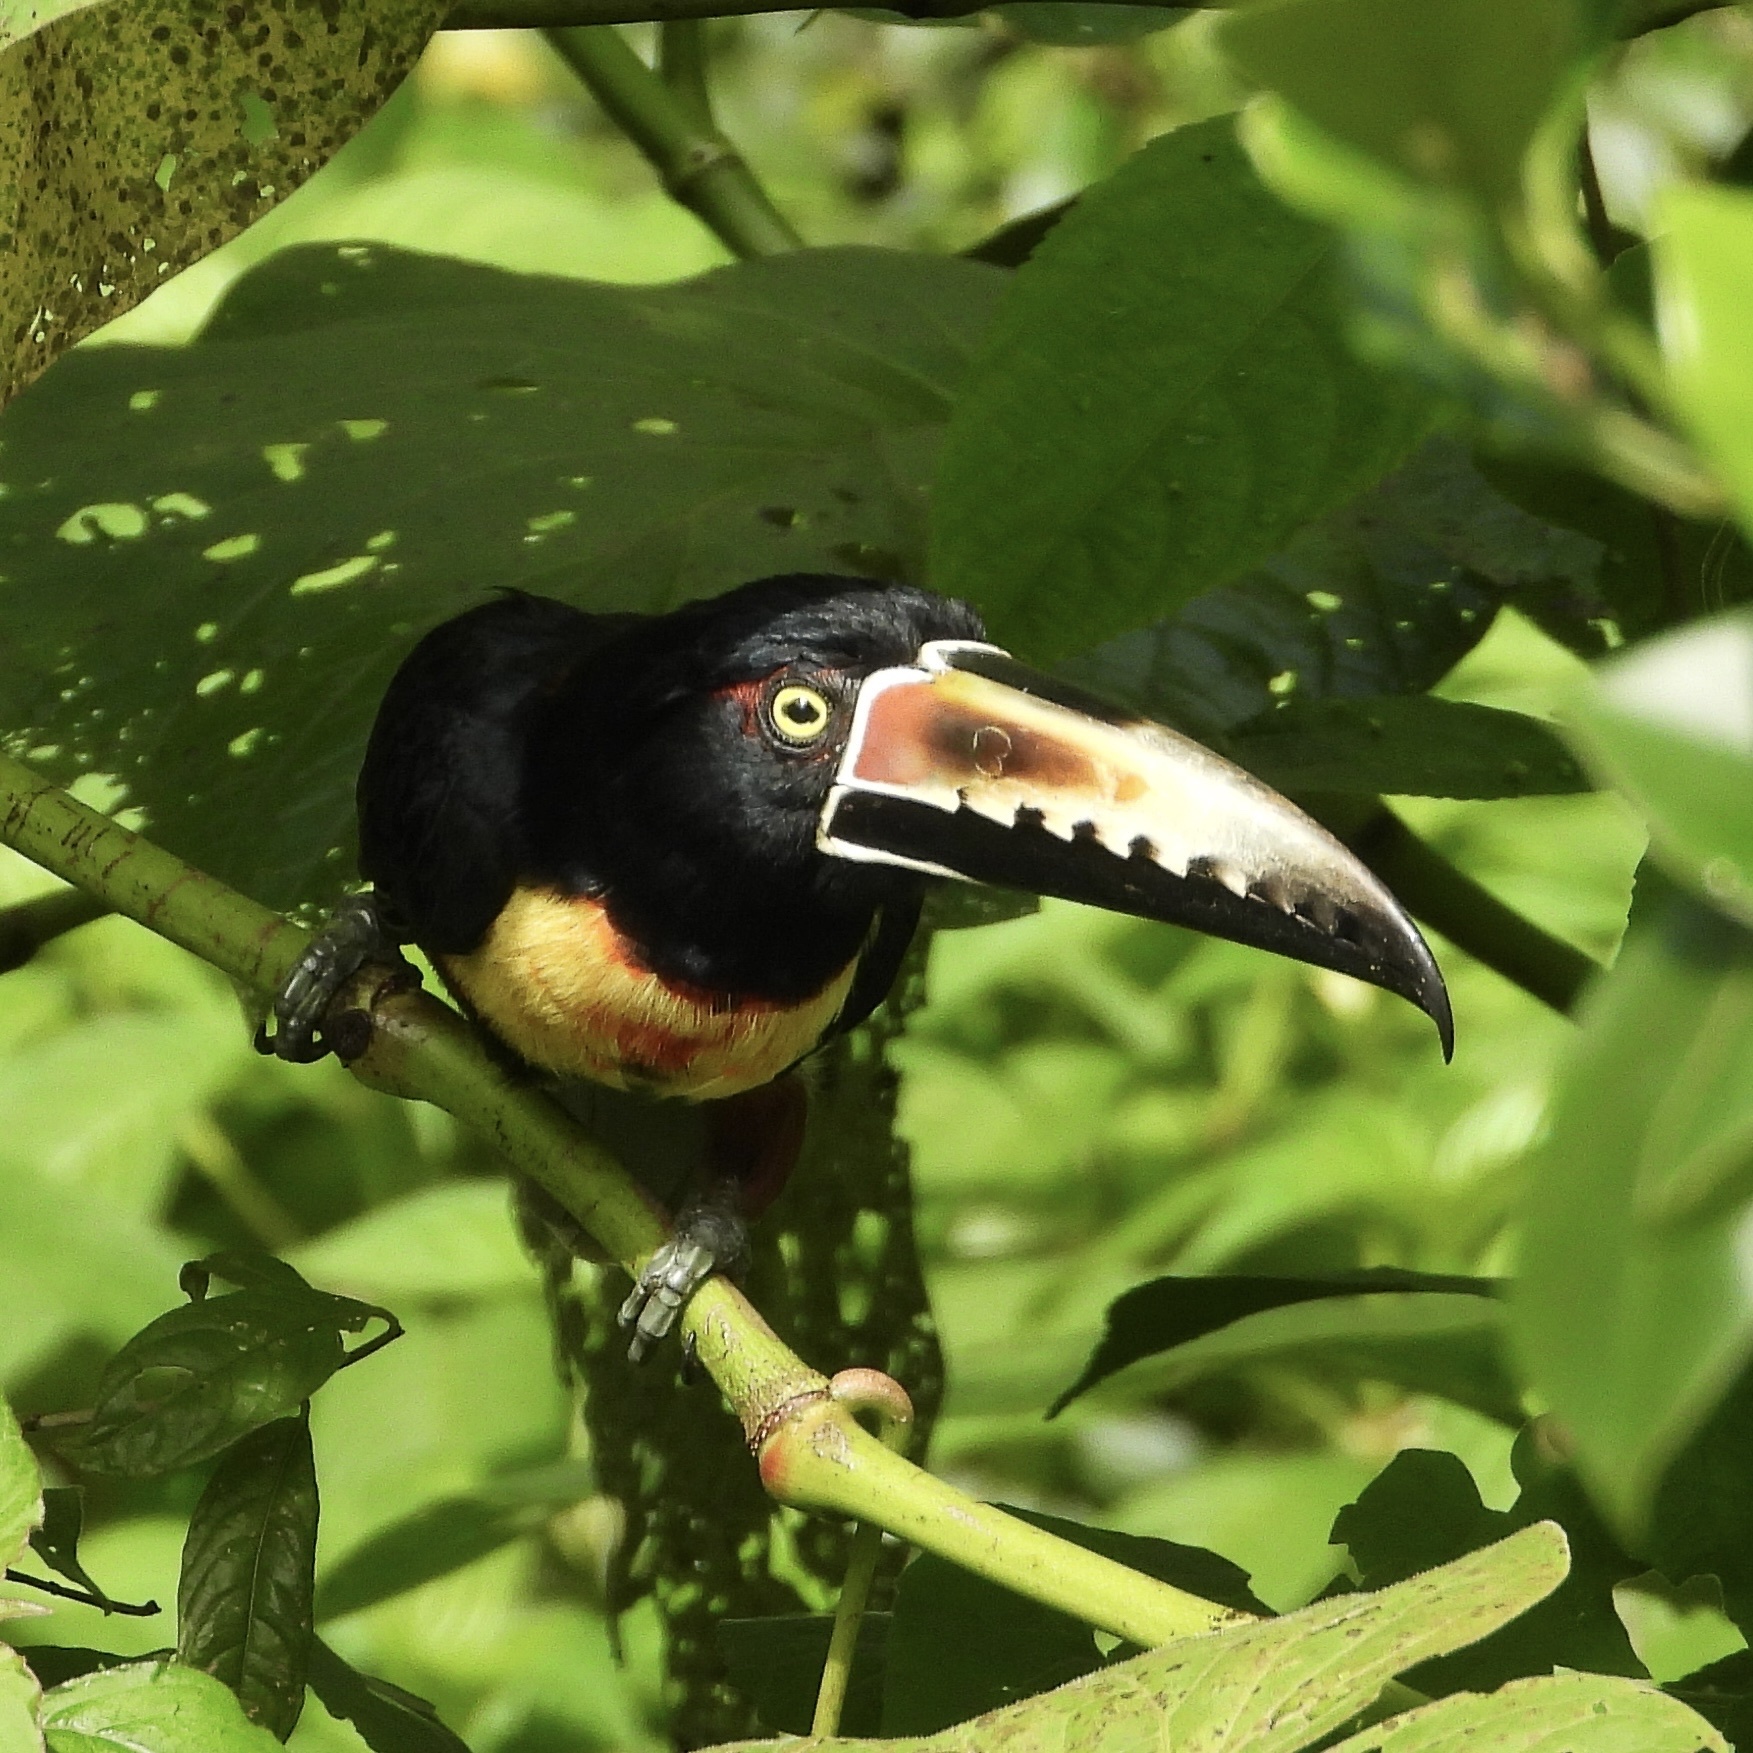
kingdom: Animalia
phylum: Chordata
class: Aves
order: Piciformes
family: Ramphastidae
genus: Pteroglossus
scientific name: Pteroglossus torquatus
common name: Collared aracari
